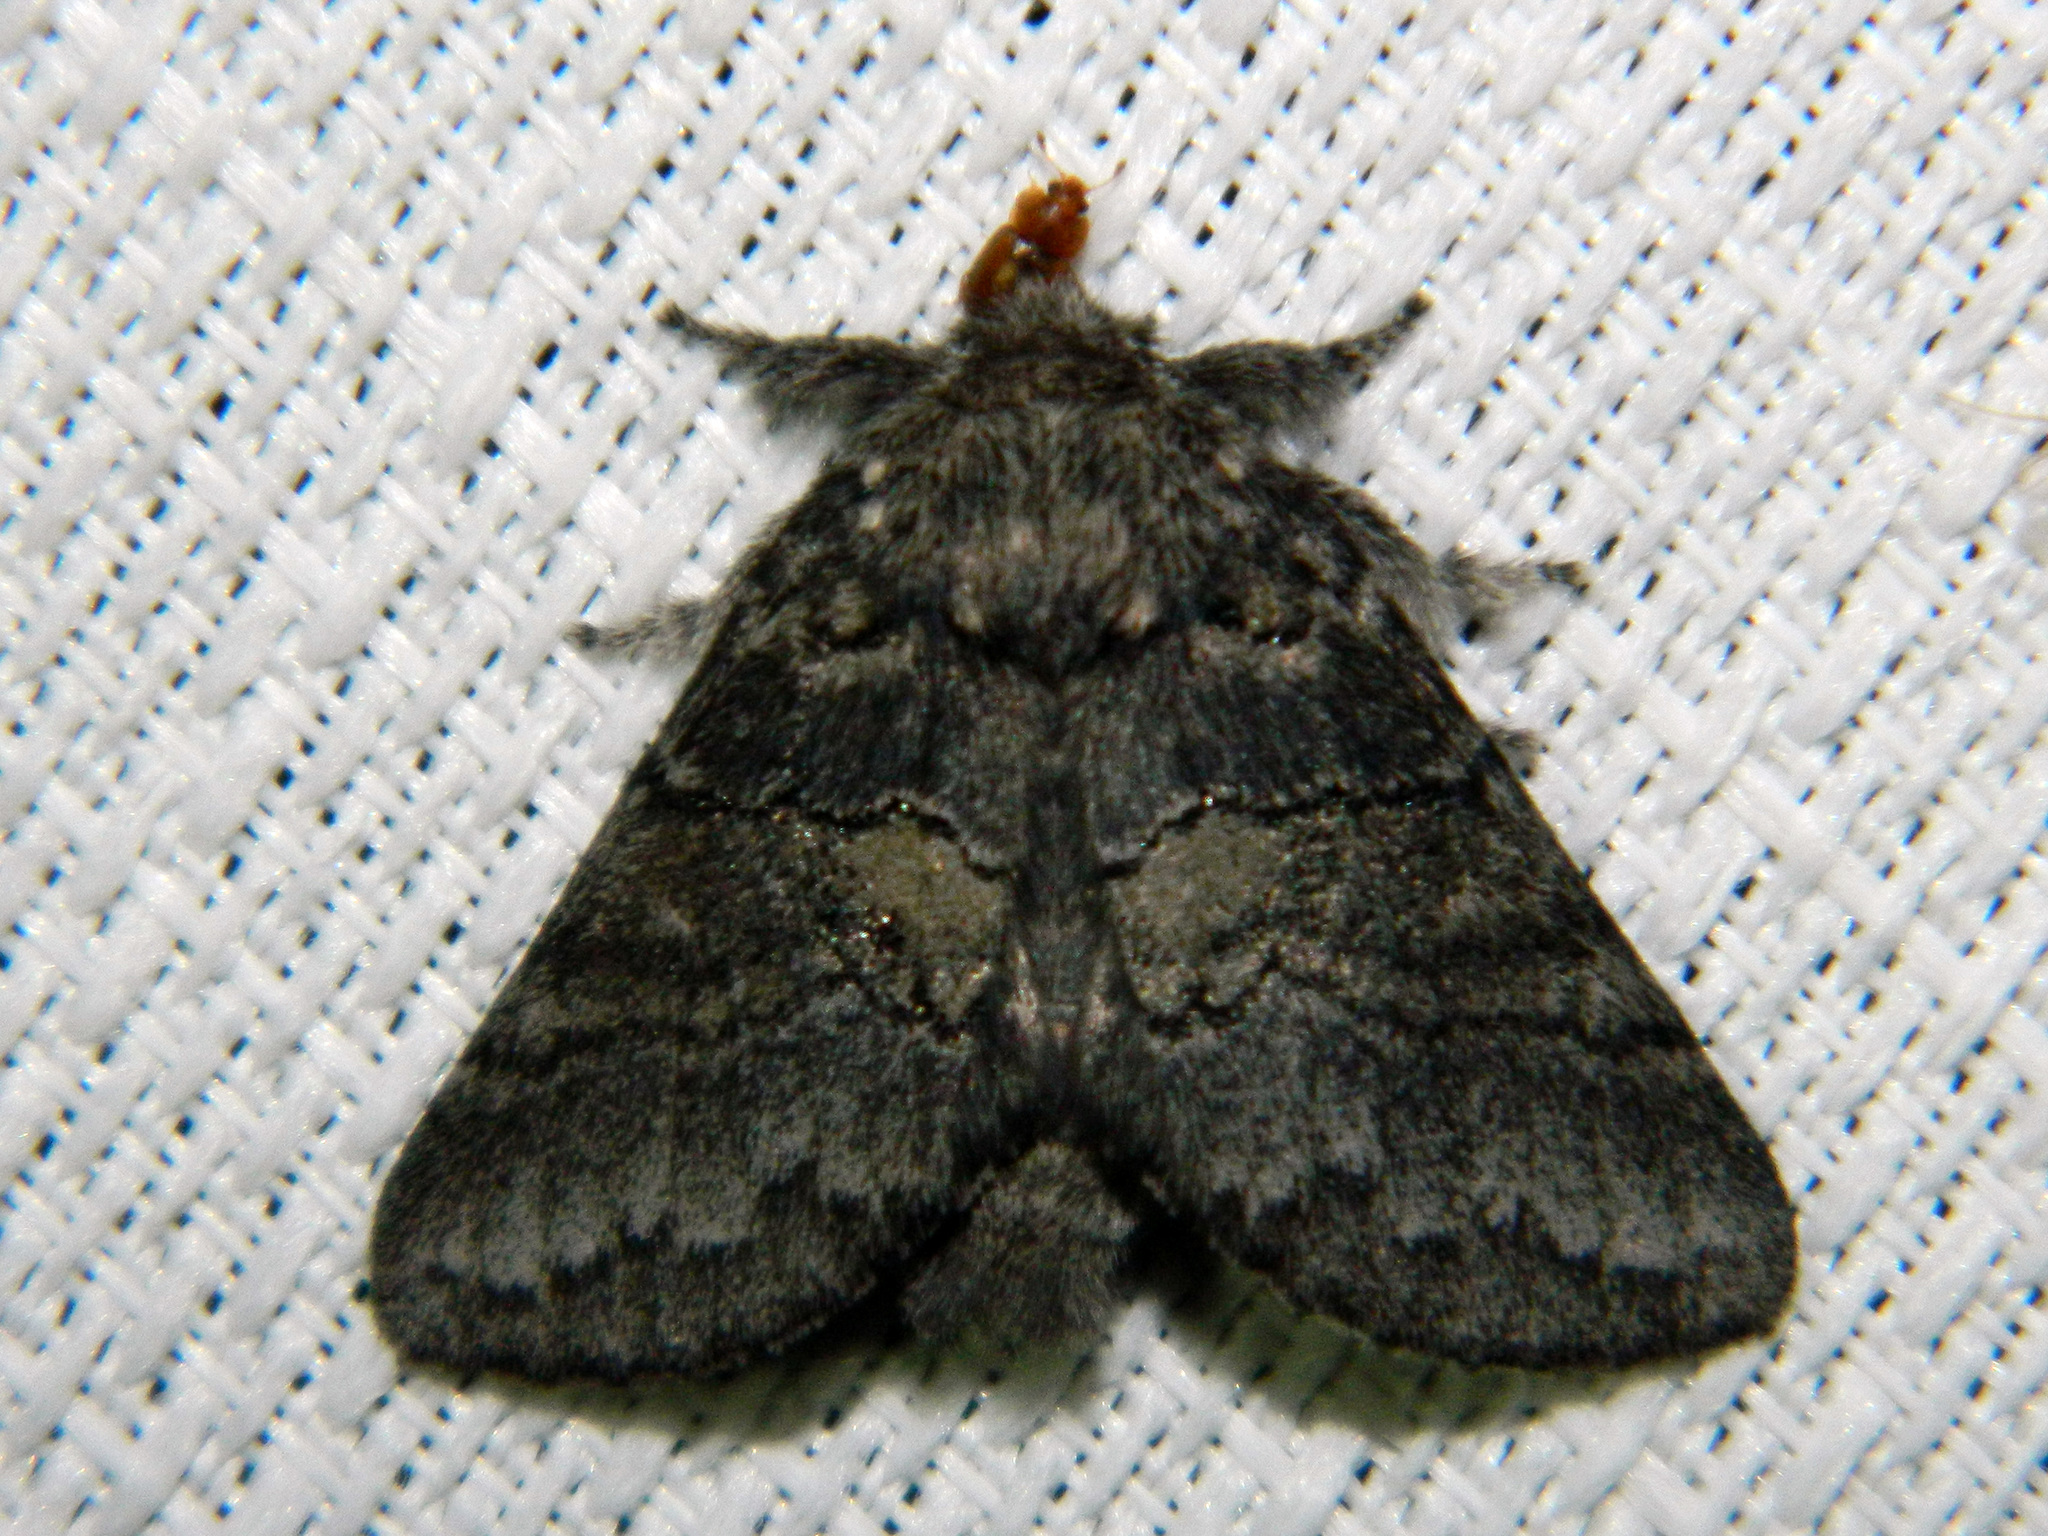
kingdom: Animalia
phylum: Arthropoda
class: Insecta
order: Lepidoptera
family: Notodontidae
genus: Gluphisia
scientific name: Gluphisia septentrionis
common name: Common gluphisia
